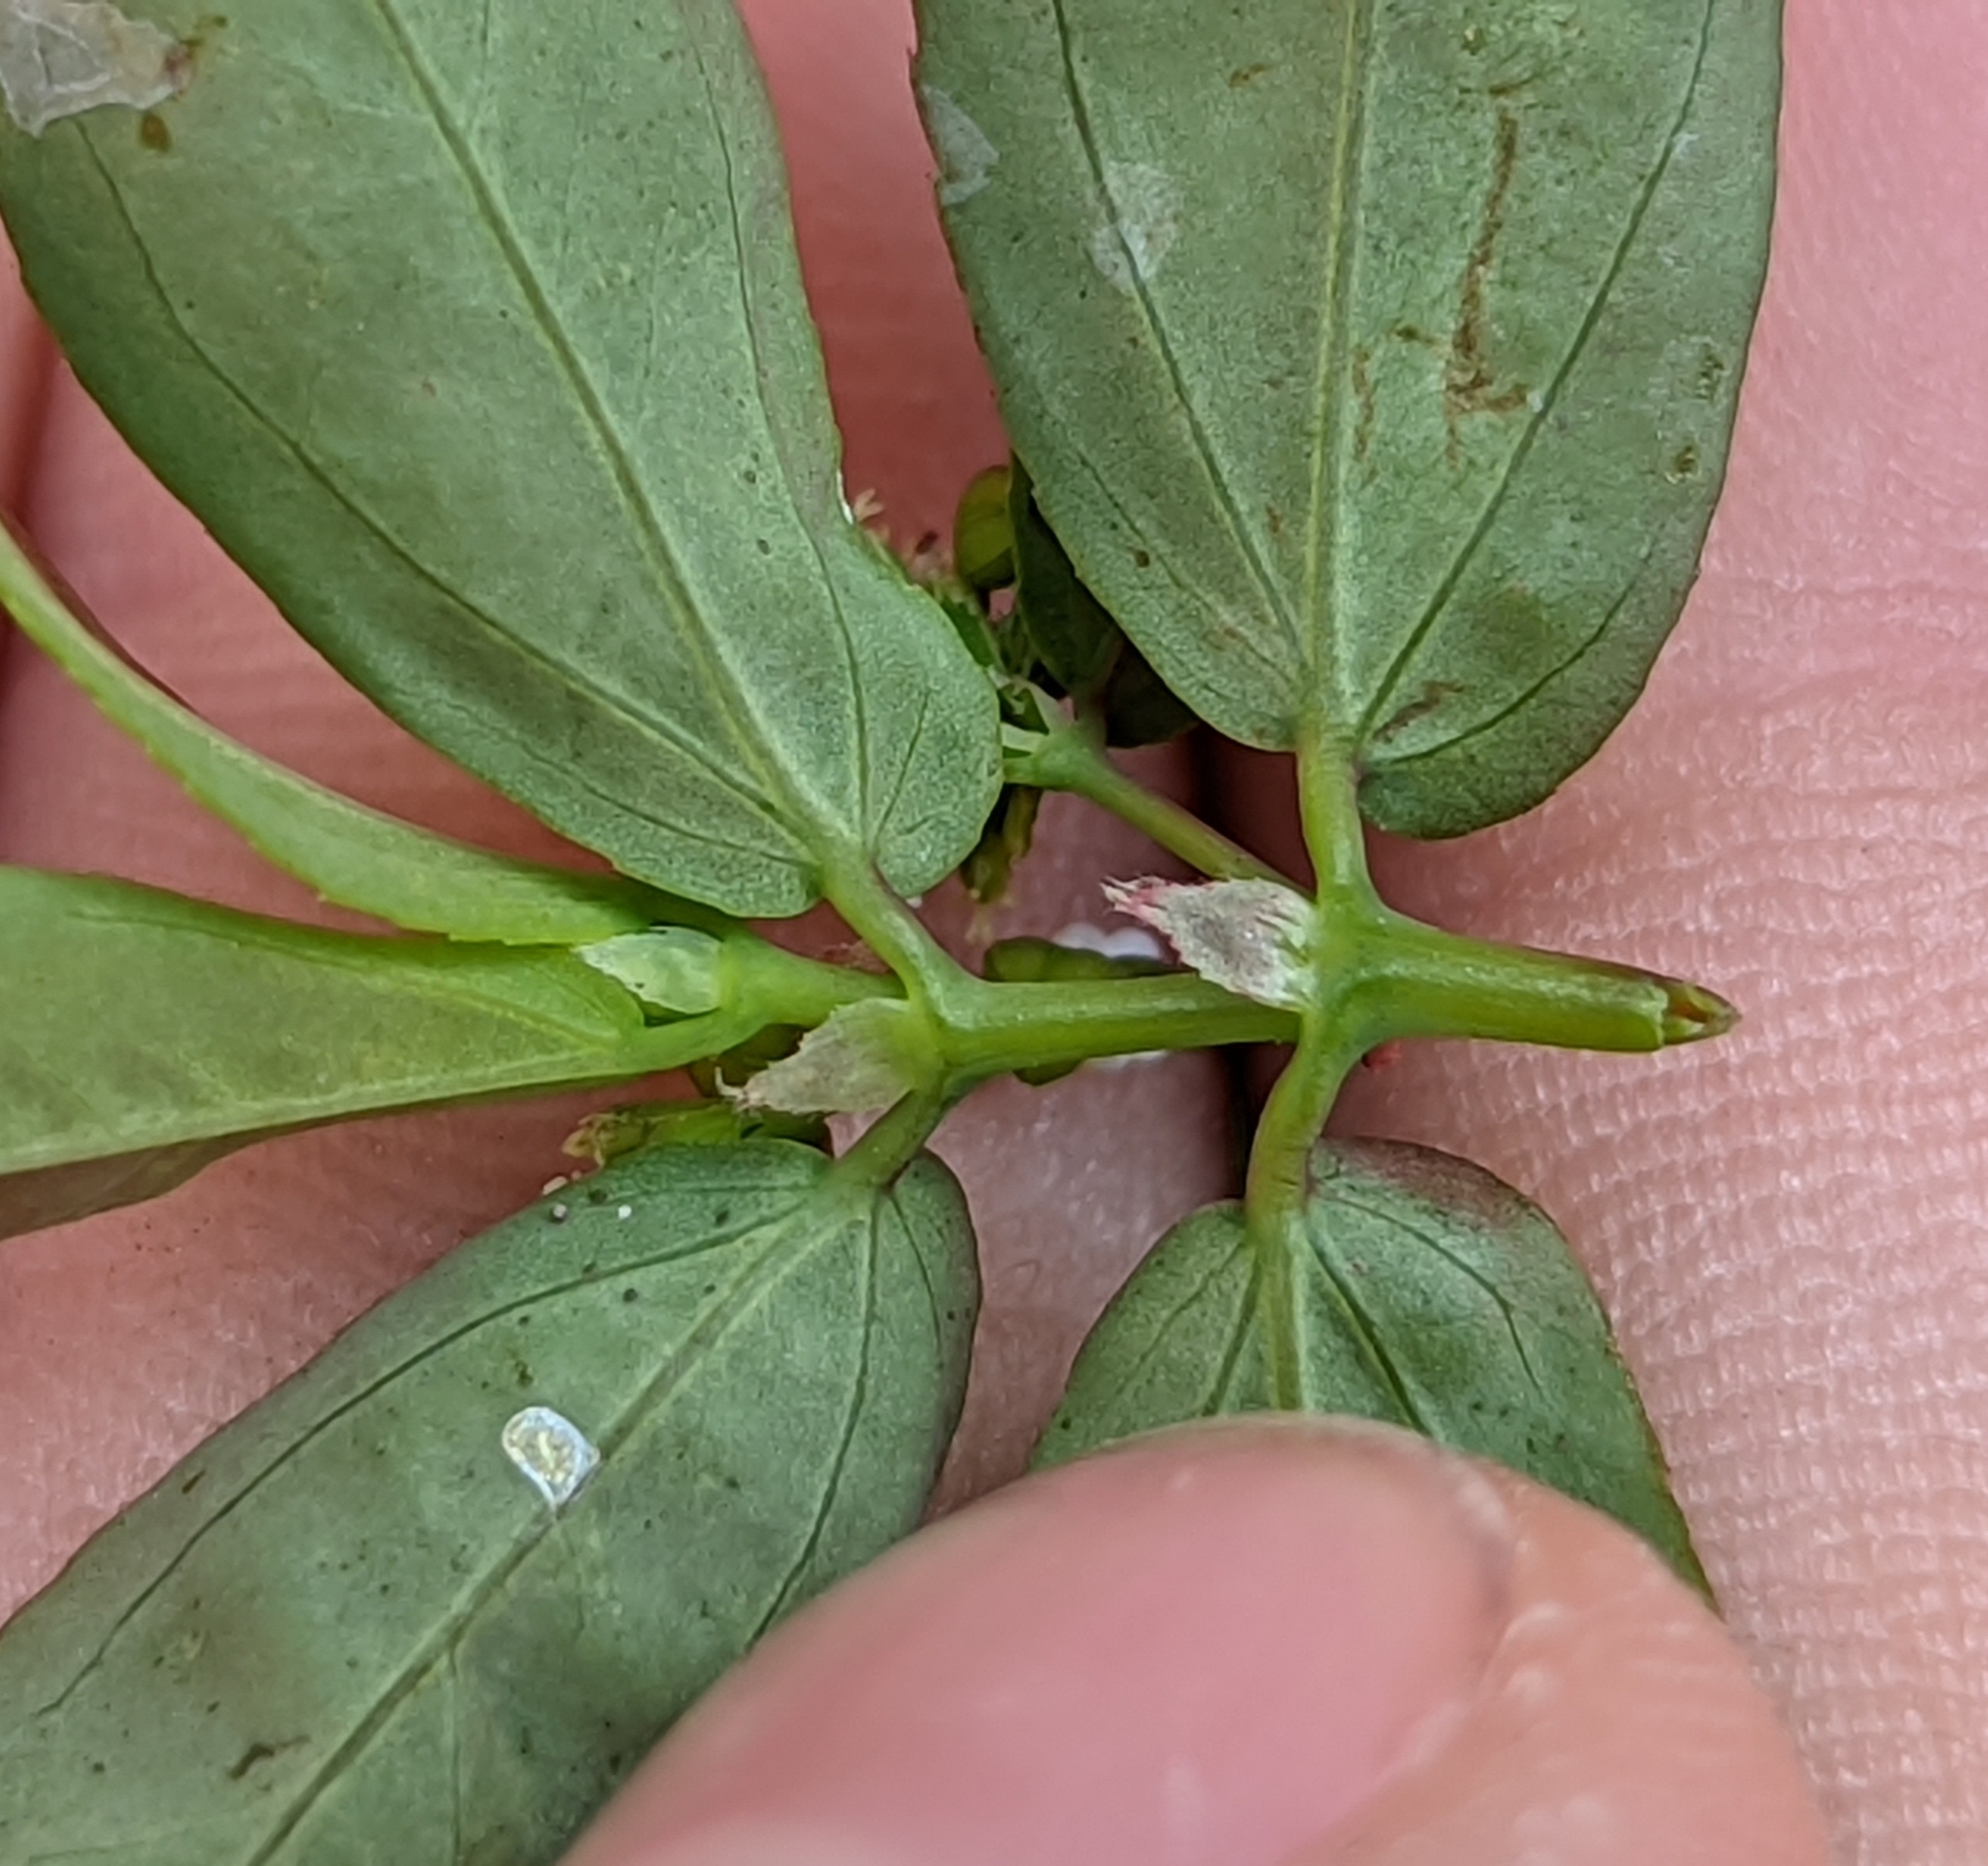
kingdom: Plantae
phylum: Tracheophyta
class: Magnoliopsida
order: Malpighiales
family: Euphorbiaceae
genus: Euphorbia
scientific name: Euphorbia hypericifolia
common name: Graceful sandmat
